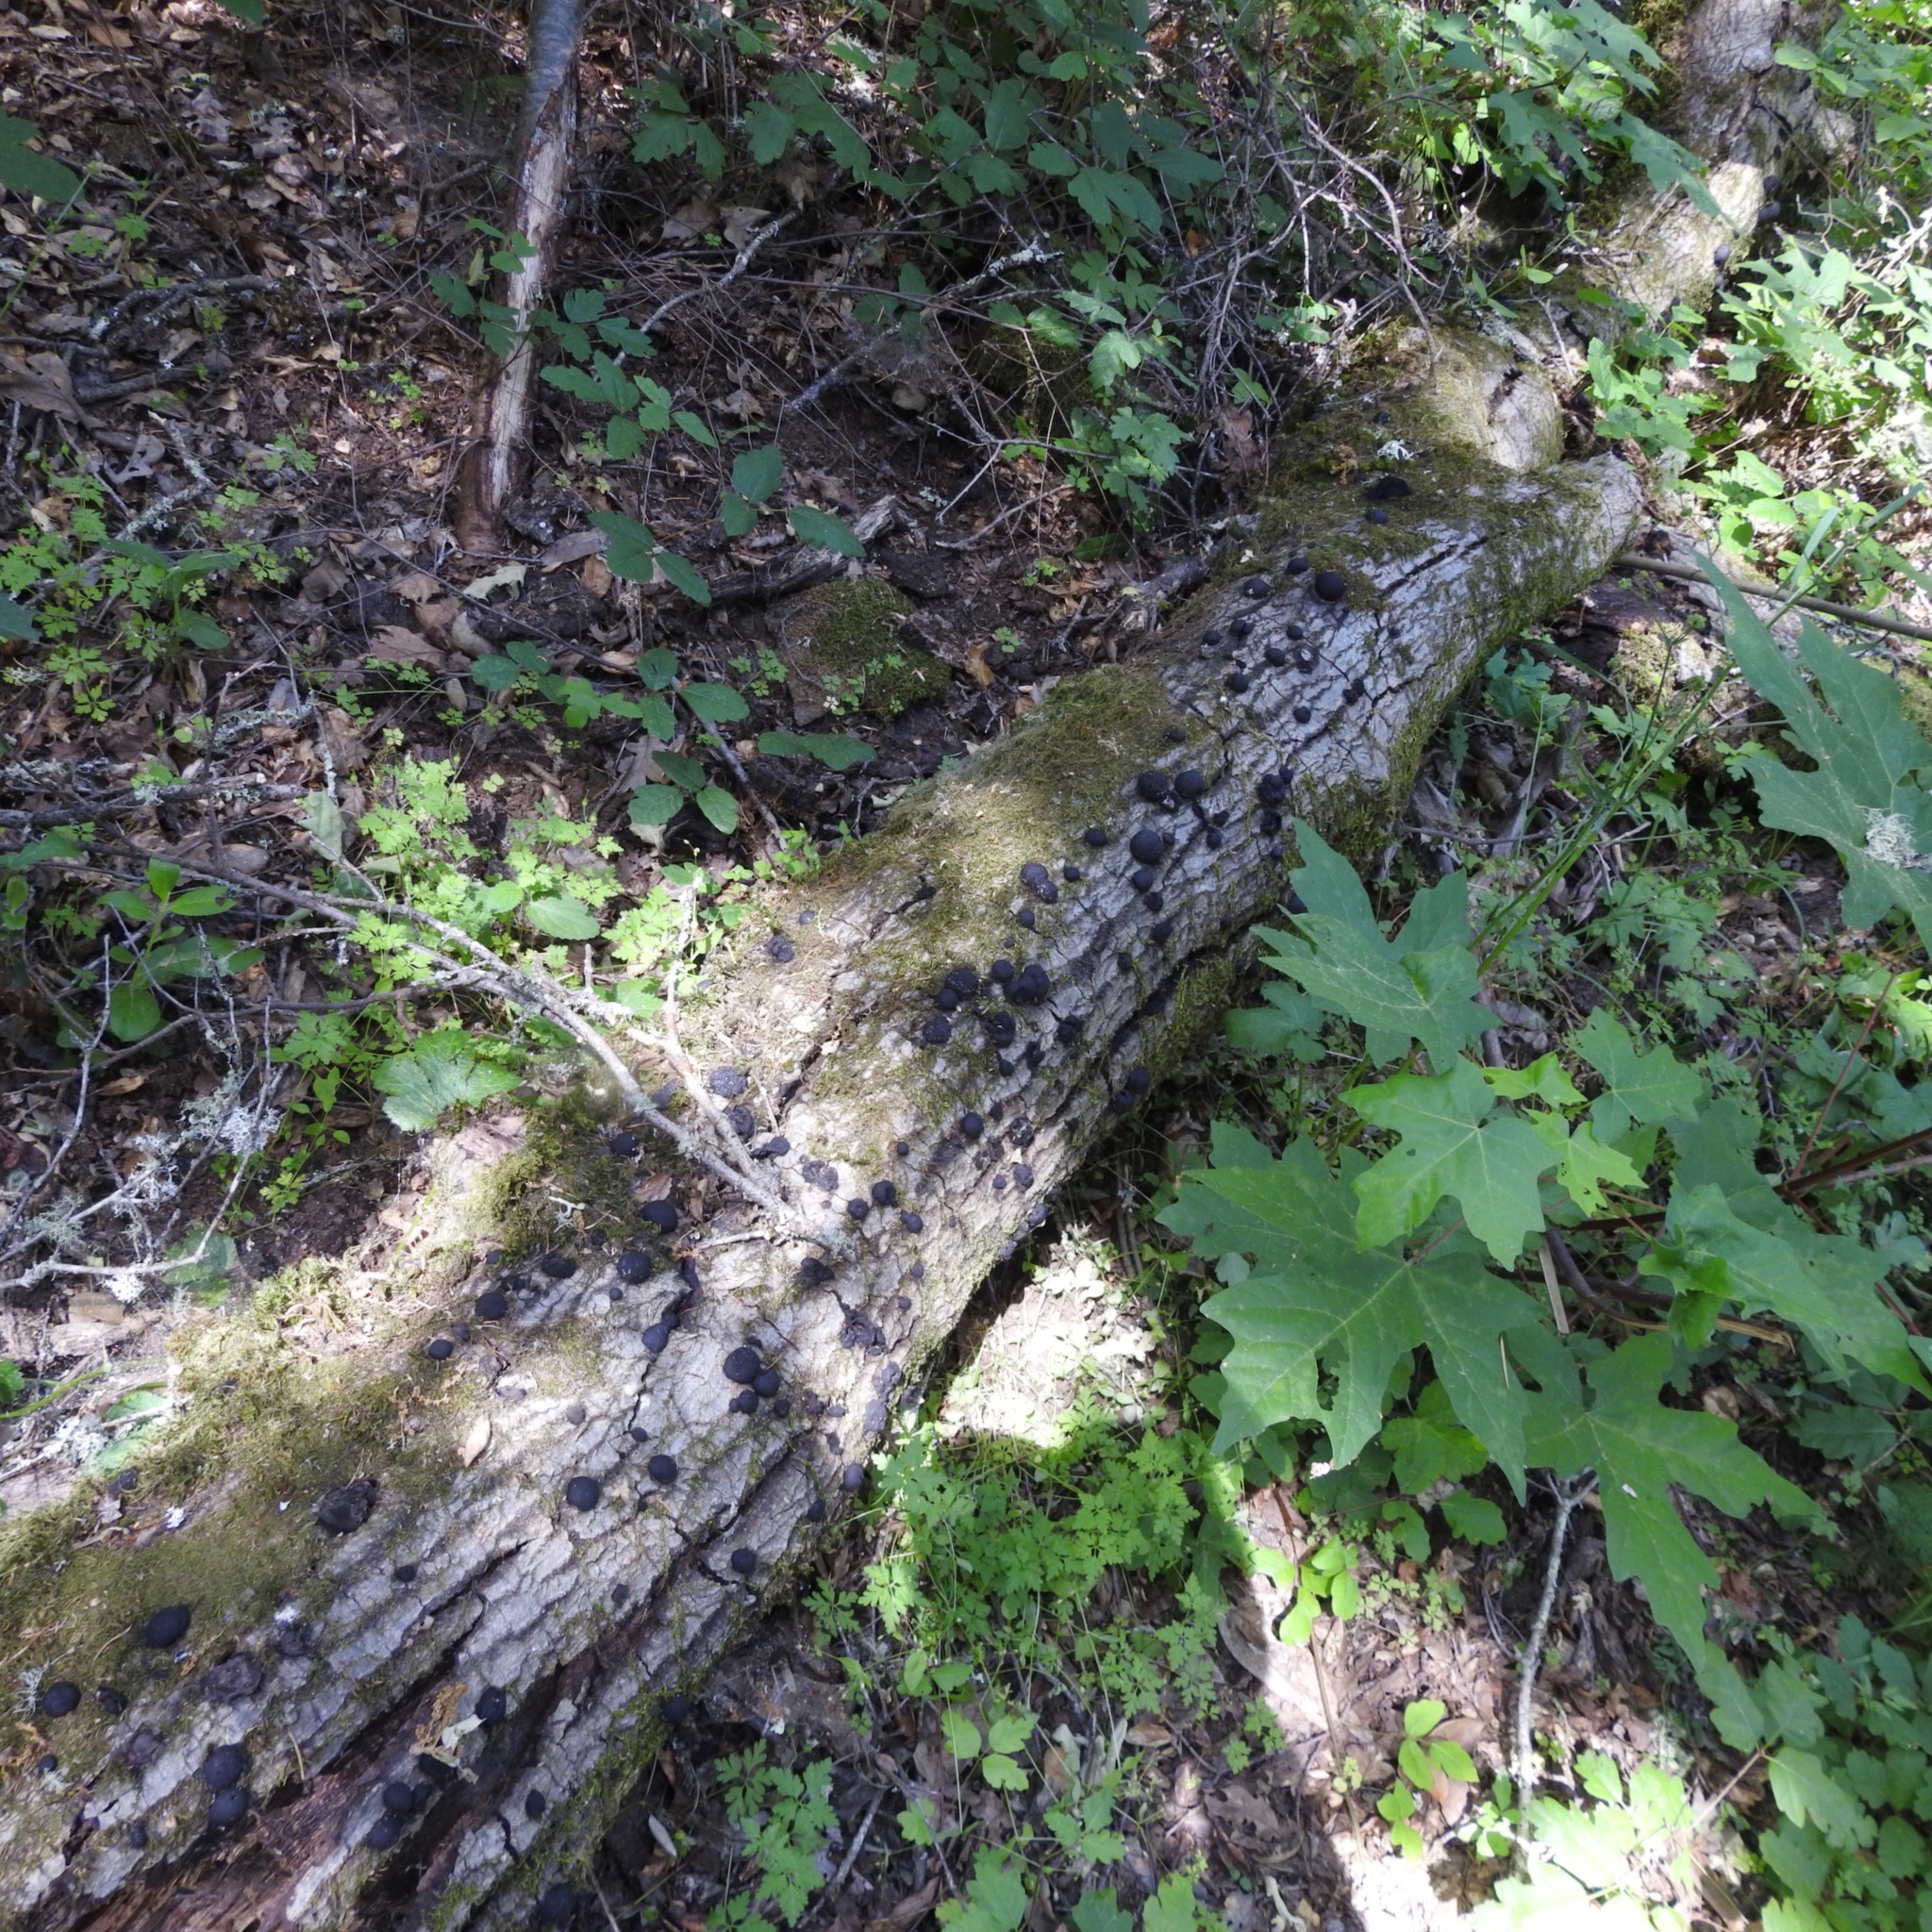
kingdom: Fungi
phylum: Ascomycota
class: Sordariomycetes
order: Xylariales
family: Hypoxylaceae
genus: Annulohypoxylon
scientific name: Annulohypoxylon thouarsianum
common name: Cramp balls
